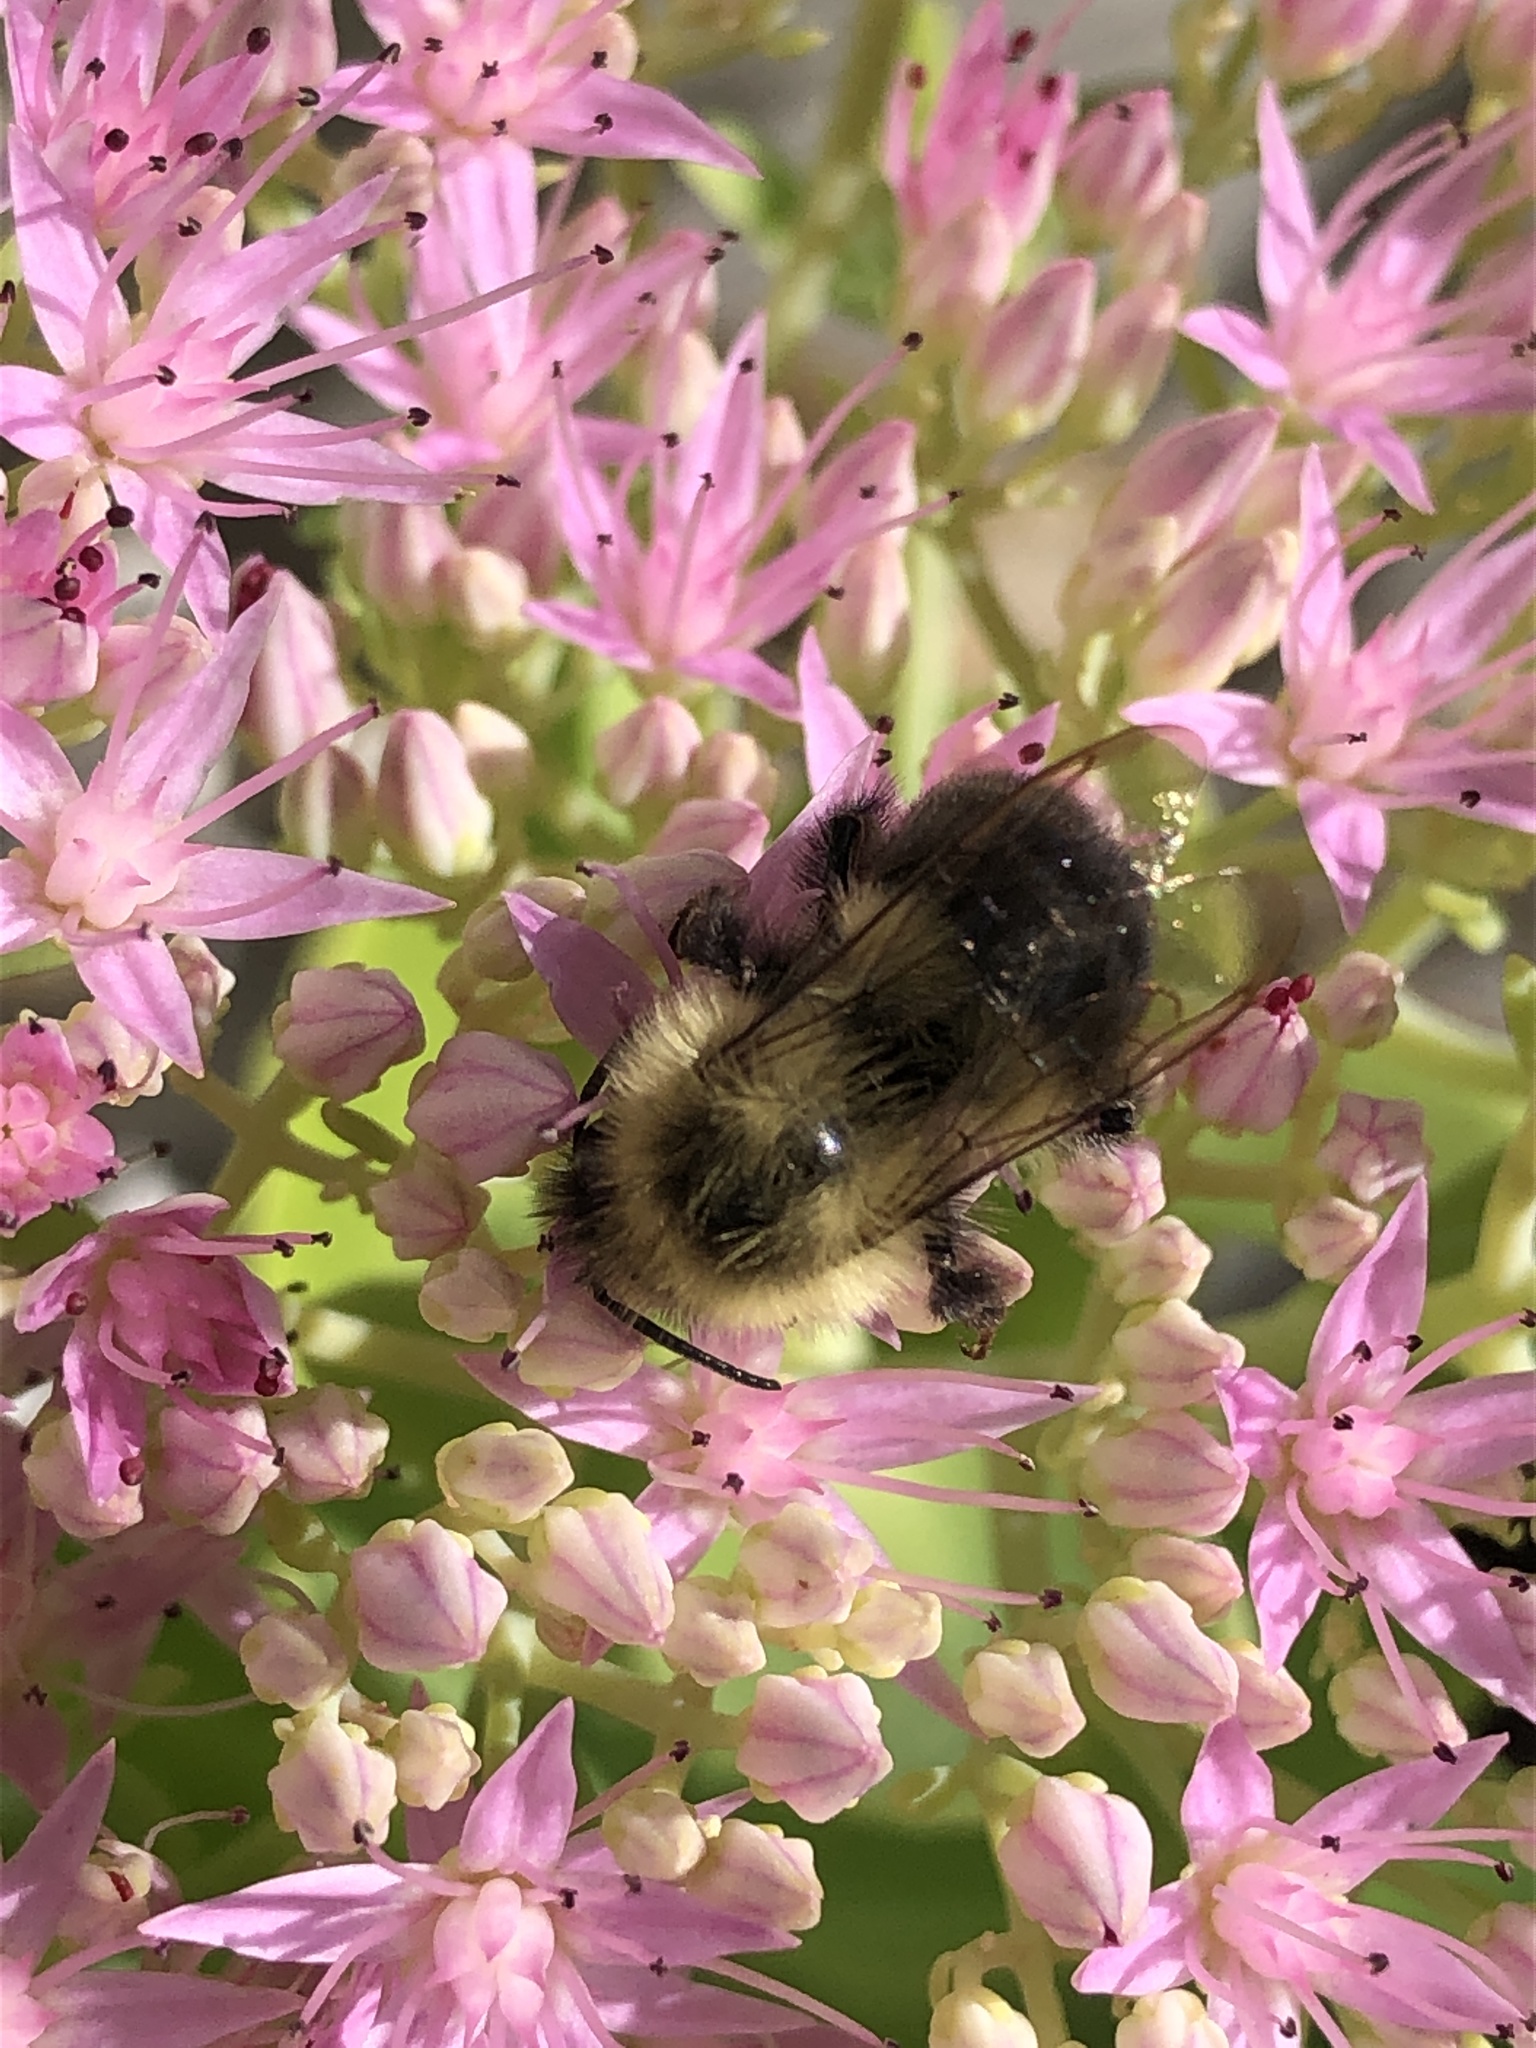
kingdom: Animalia
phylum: Arthropoda
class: Insecta
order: Hymenoptera
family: Apidae
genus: Bombus
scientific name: Bombus impatiens
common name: Common eastern bumble bee
